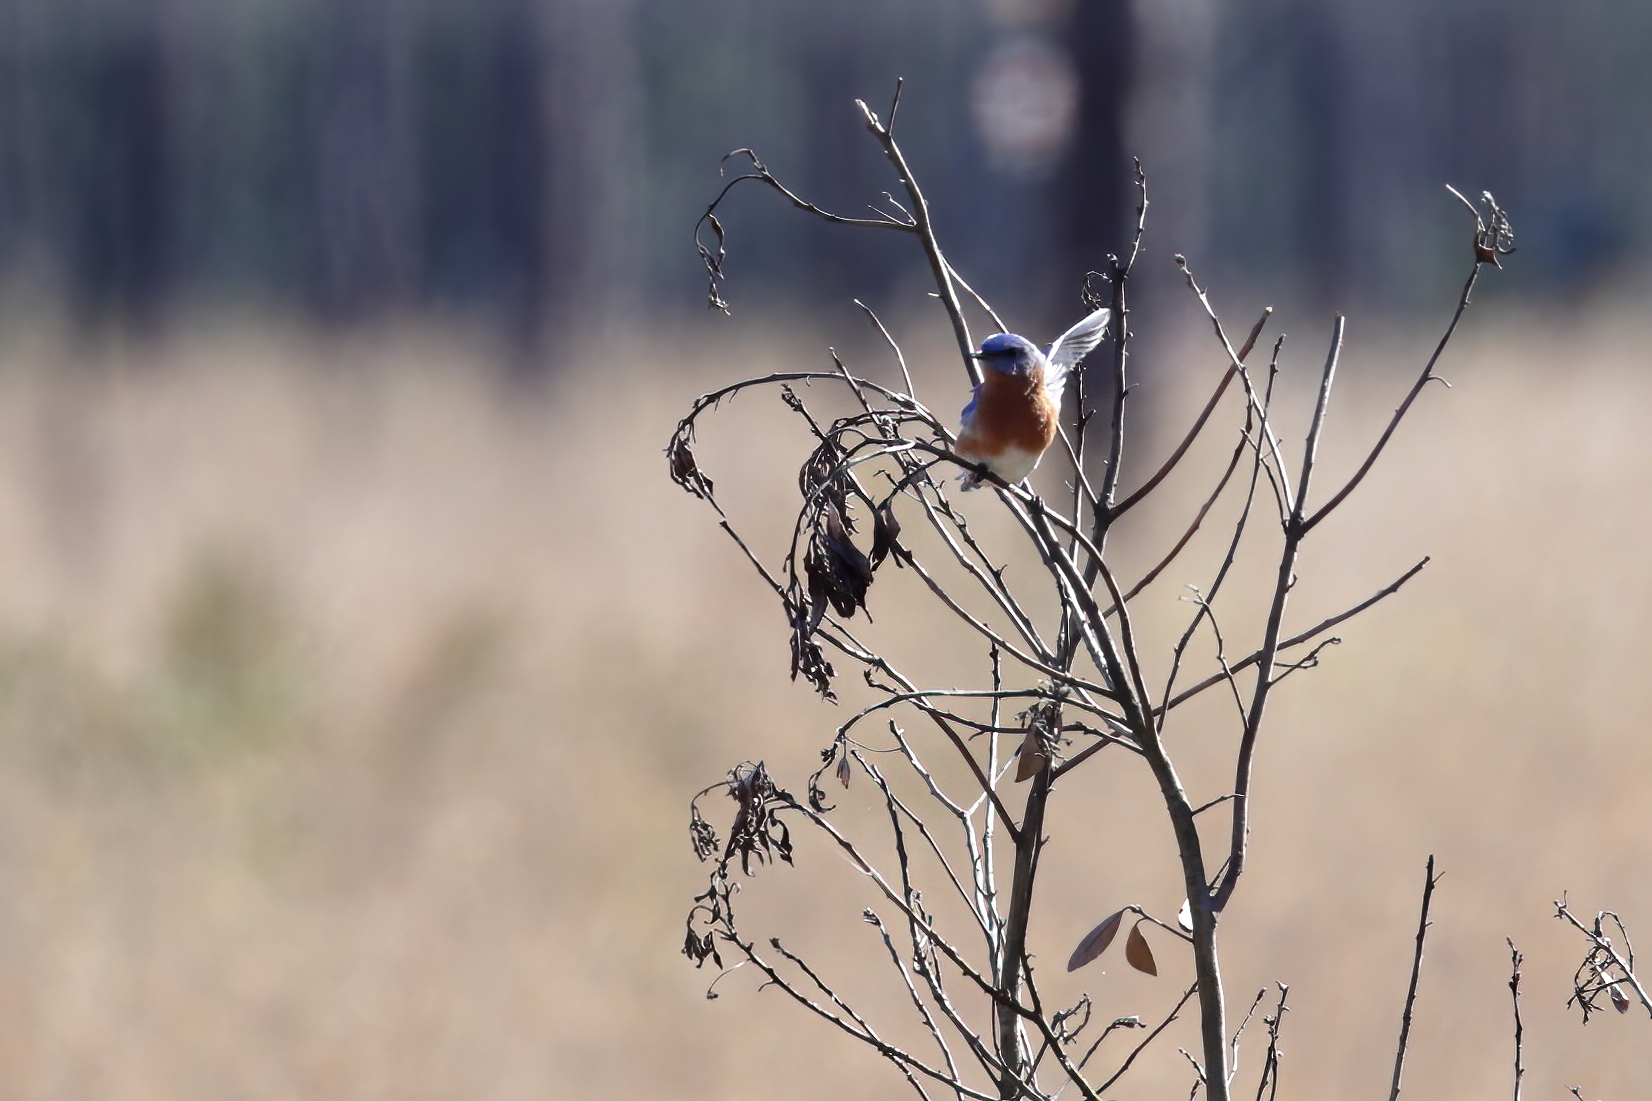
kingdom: Animalia
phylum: Chordata
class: Aves
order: Passeriformes
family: Turdidae
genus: Sialia
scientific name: Sialia sialis
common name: Eastern bluebird
